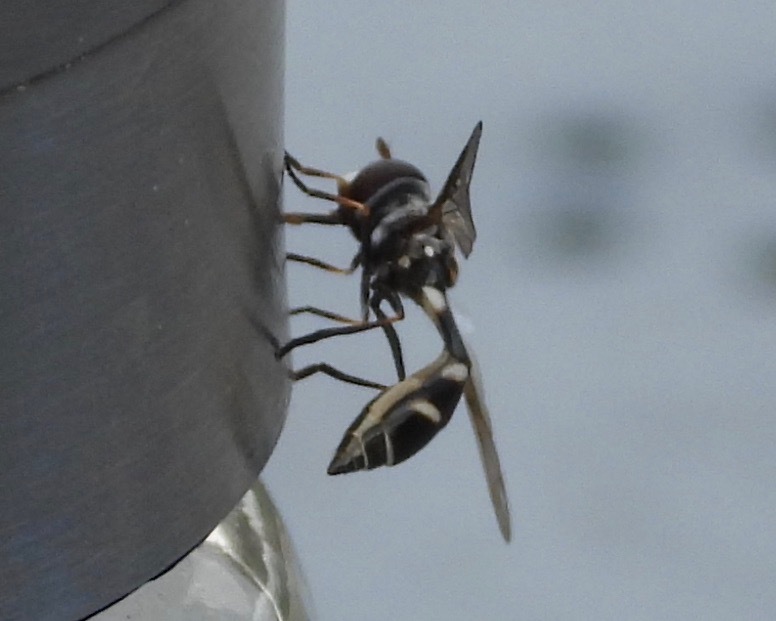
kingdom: Animalia
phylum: Arthropoda
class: Insecta
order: Diptera
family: Syrphidae
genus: Dioprosopa
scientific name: Dioprosopa clavatus
